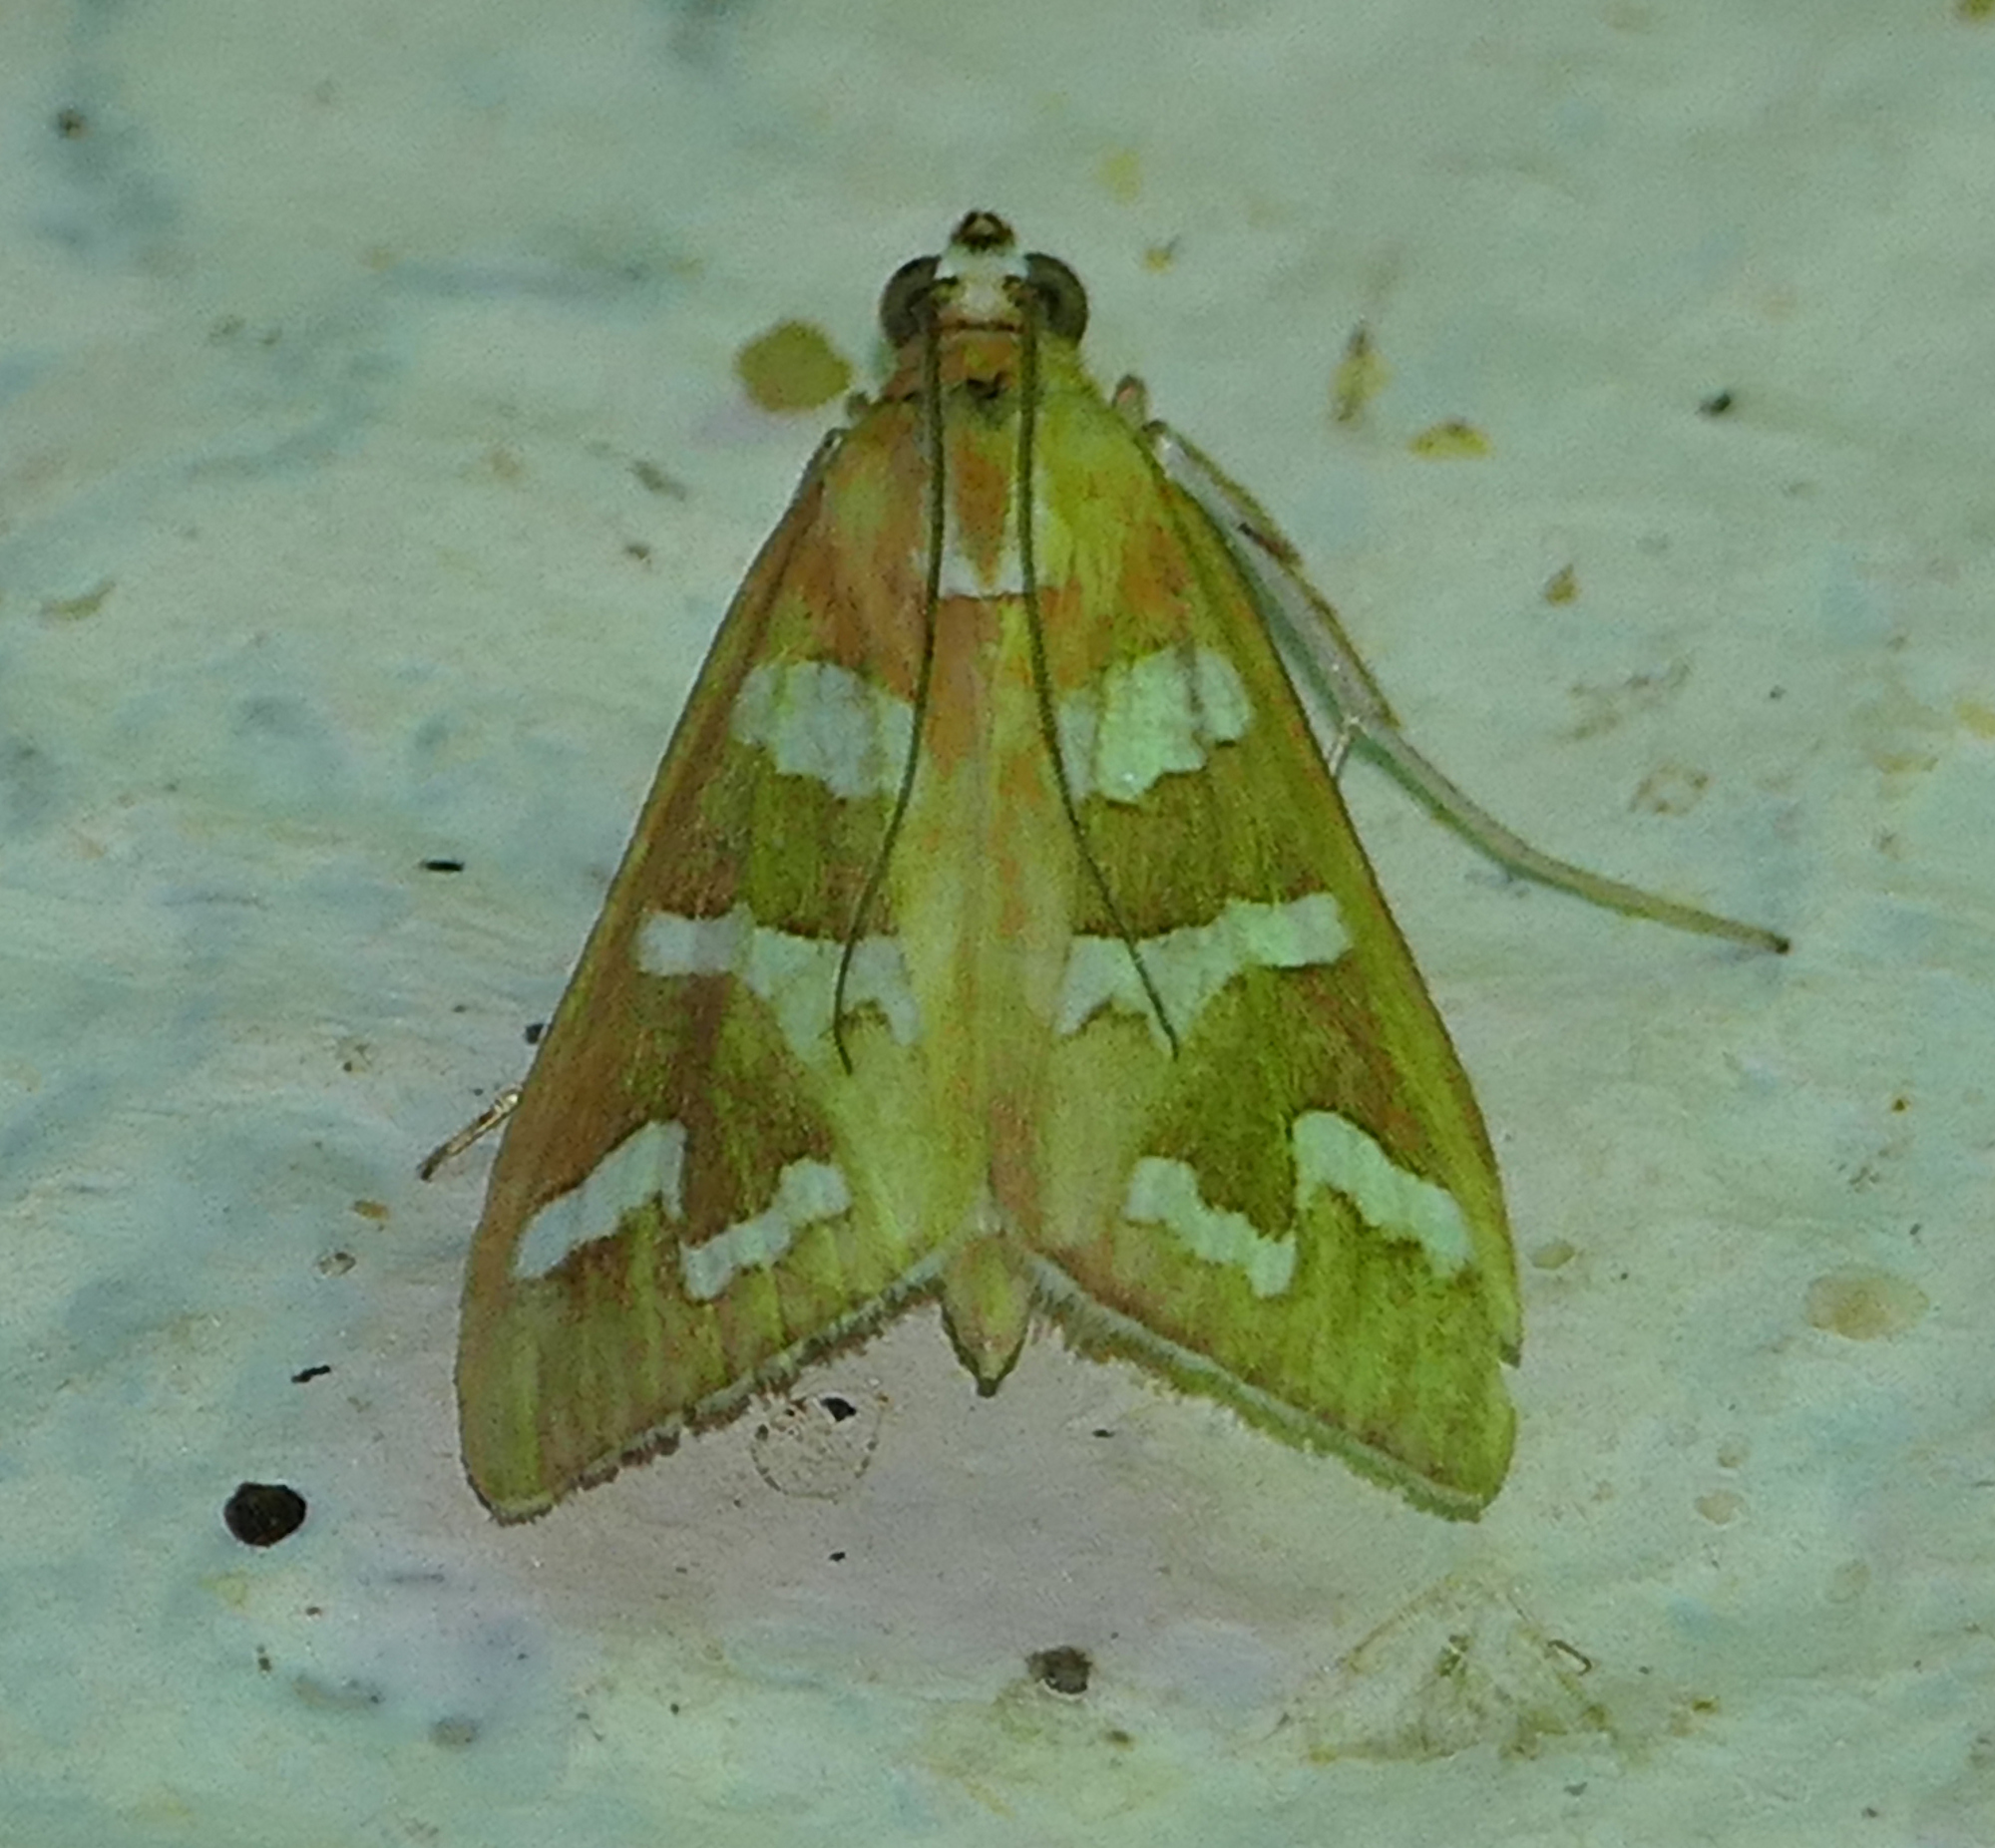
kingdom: Animalia
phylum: Arthropoda
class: Insecta
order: Lepidoptera
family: Crambidae
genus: Diastictis
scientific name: Diastictis fracturalis
